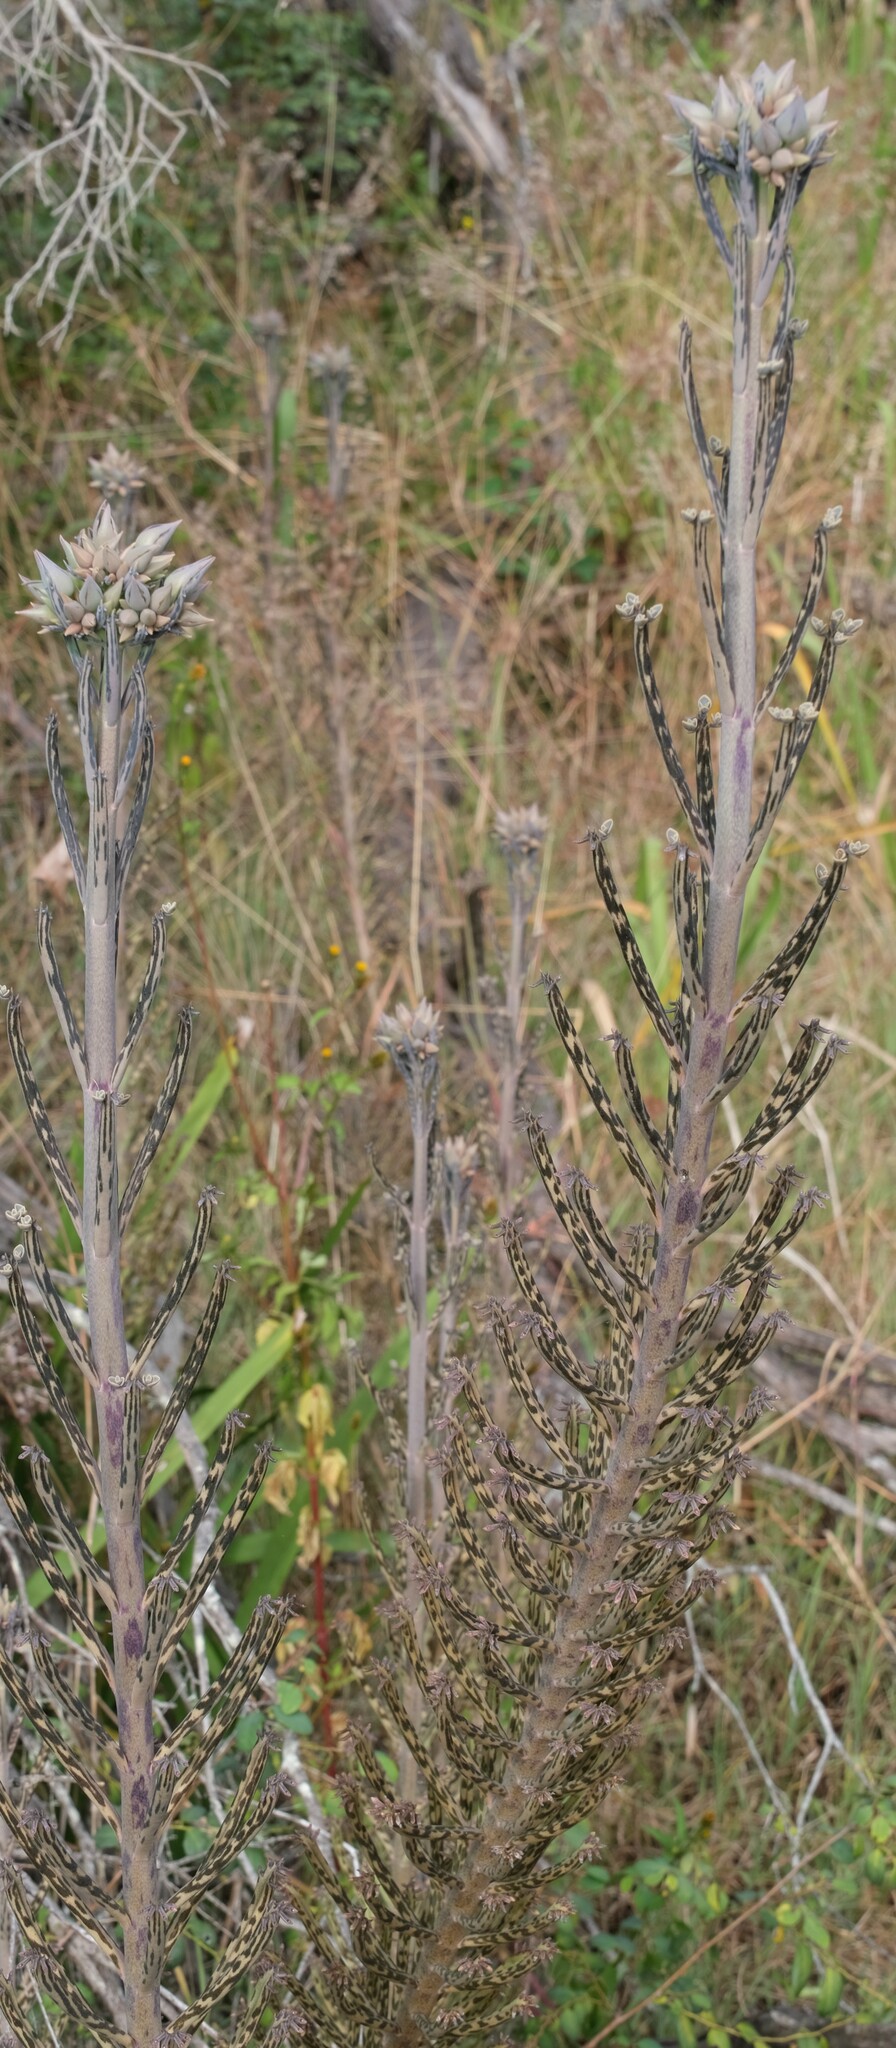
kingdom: Plantae
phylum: Tracheophyta
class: Magnoliopsida
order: Saxifragales
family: Crassulaceae
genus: Kalanchoe
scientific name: Kalanchoe delagoensis
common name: Chandelier plant
